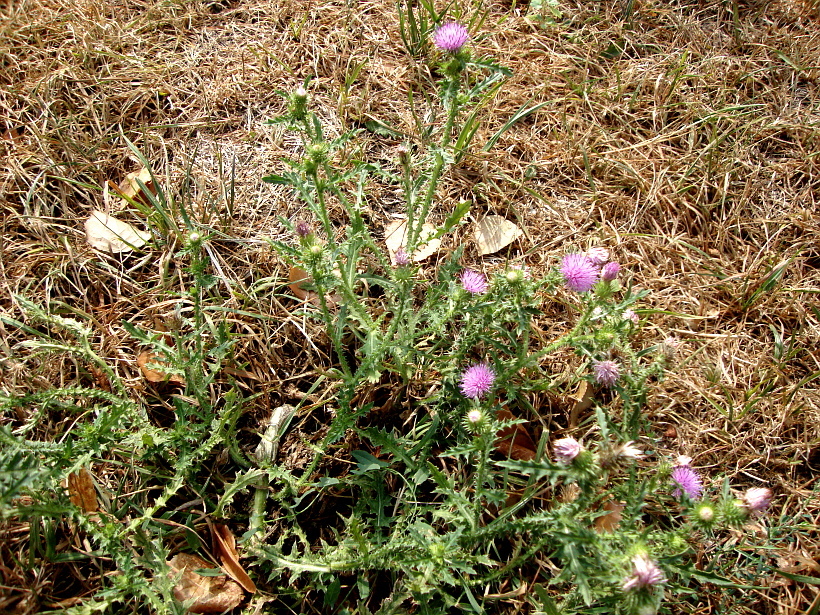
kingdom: Plantae
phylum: Tracheophyta
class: Magnoliopsida
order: Asterales
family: Asteraceae
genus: Carduus
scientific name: Carduus acanthoides
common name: Plumeless thistle
